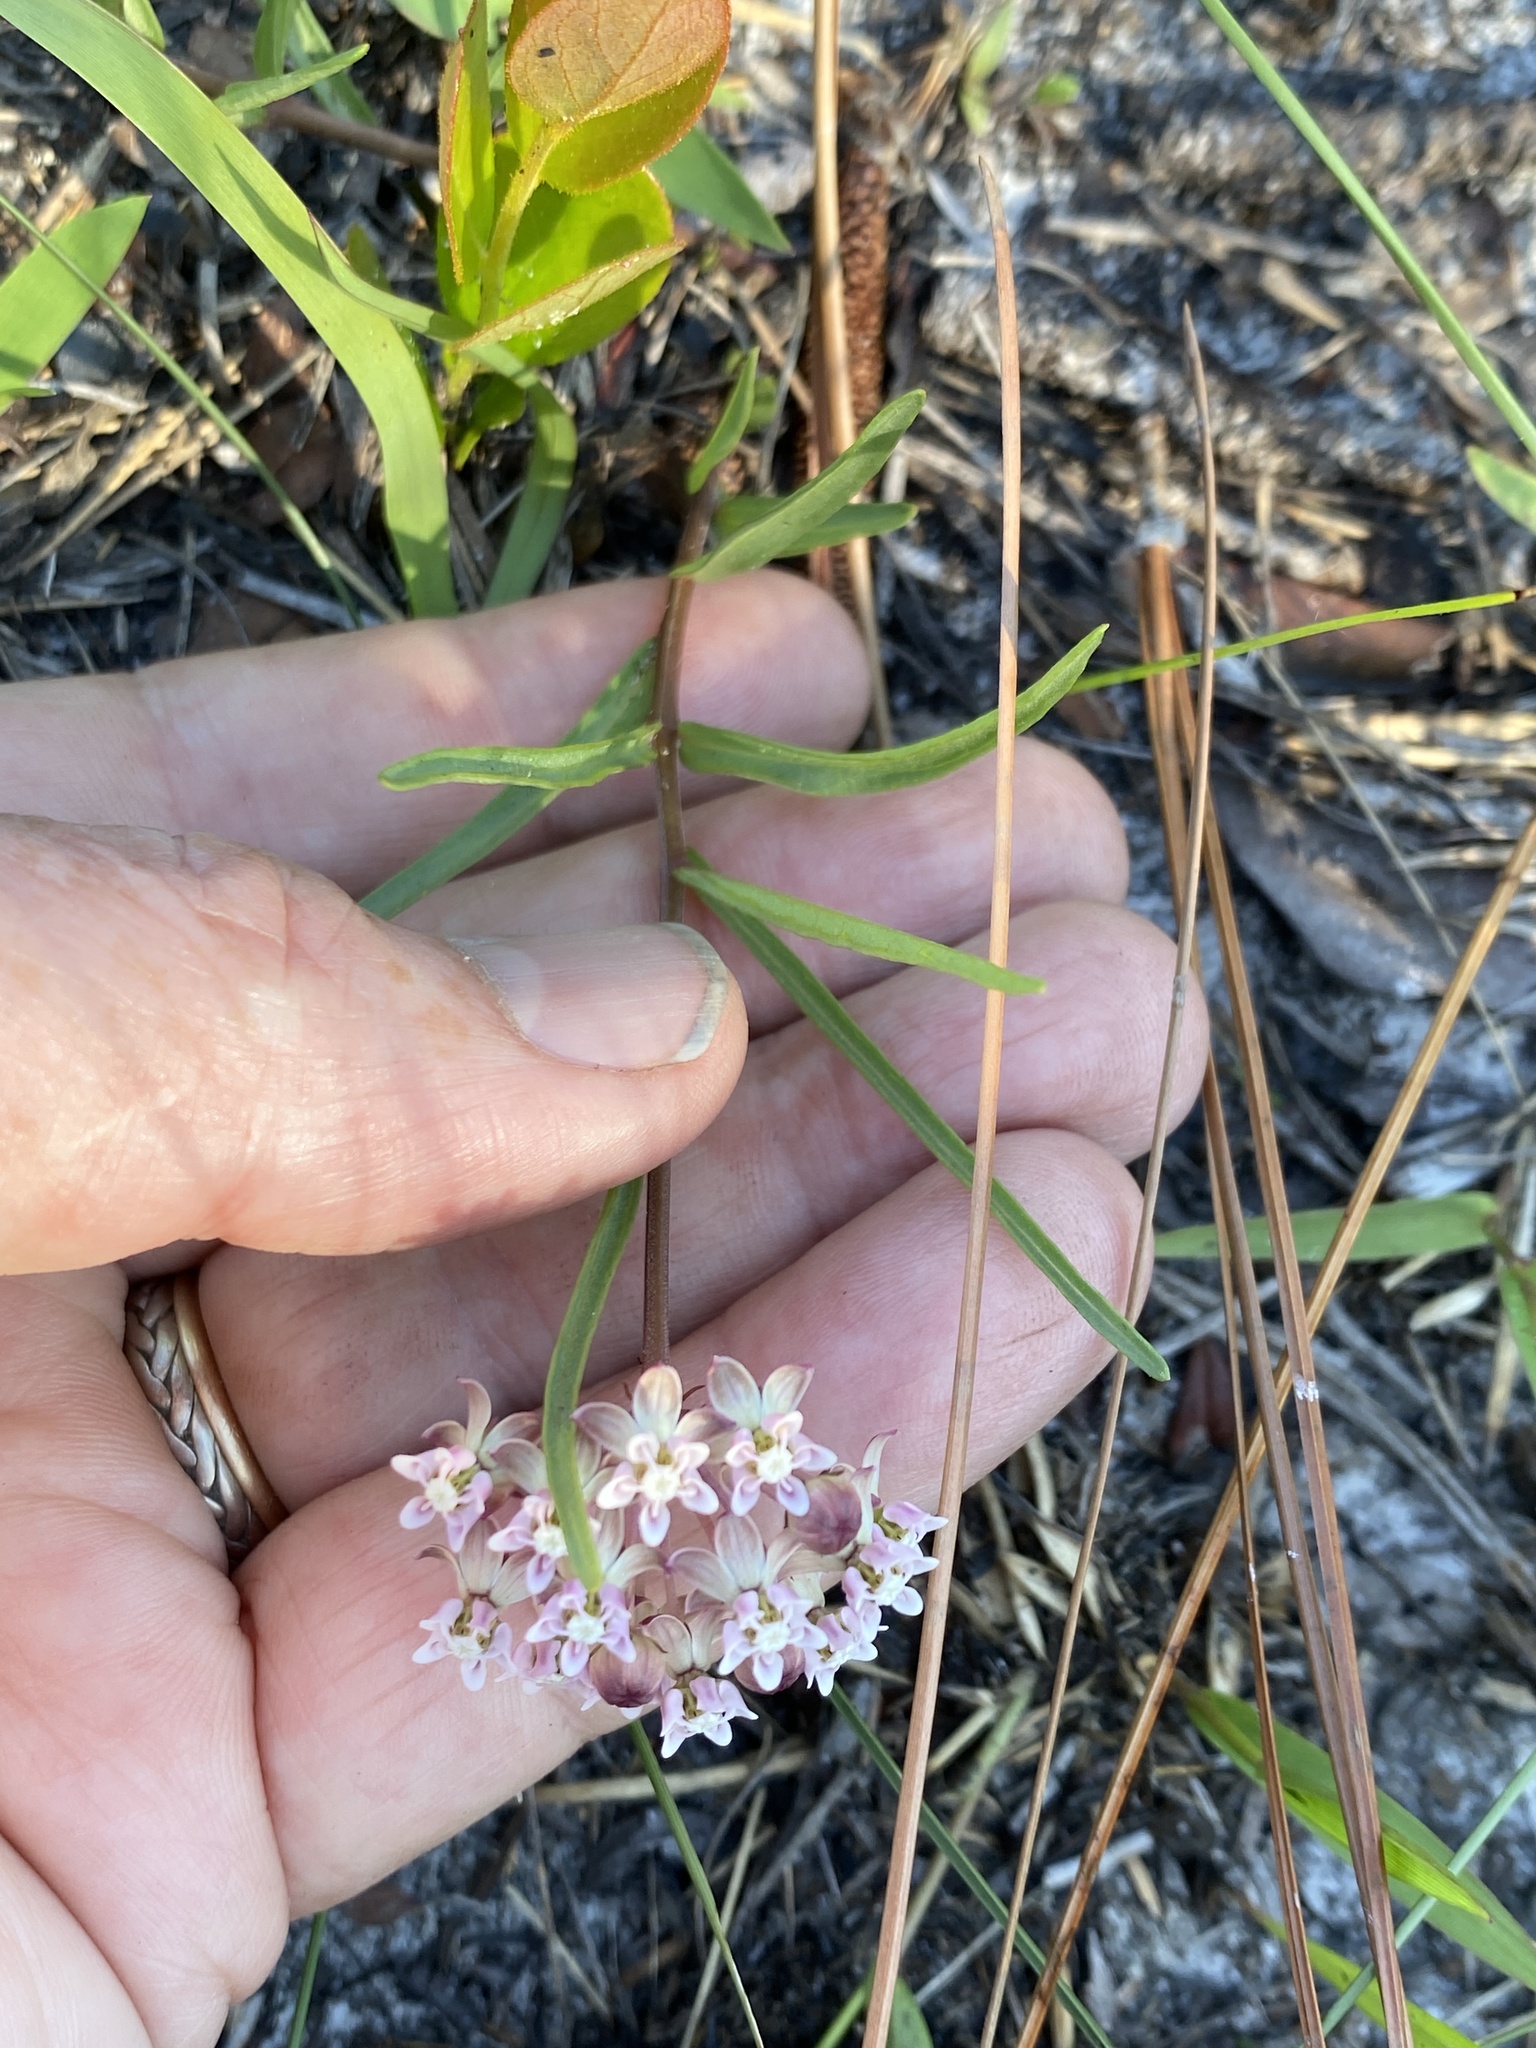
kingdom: Plantae
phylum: Tracheophyta
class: Magnoliopsida
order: Gentianales
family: Apocynaceae
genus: Asclepias
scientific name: Asclepias michauxii
